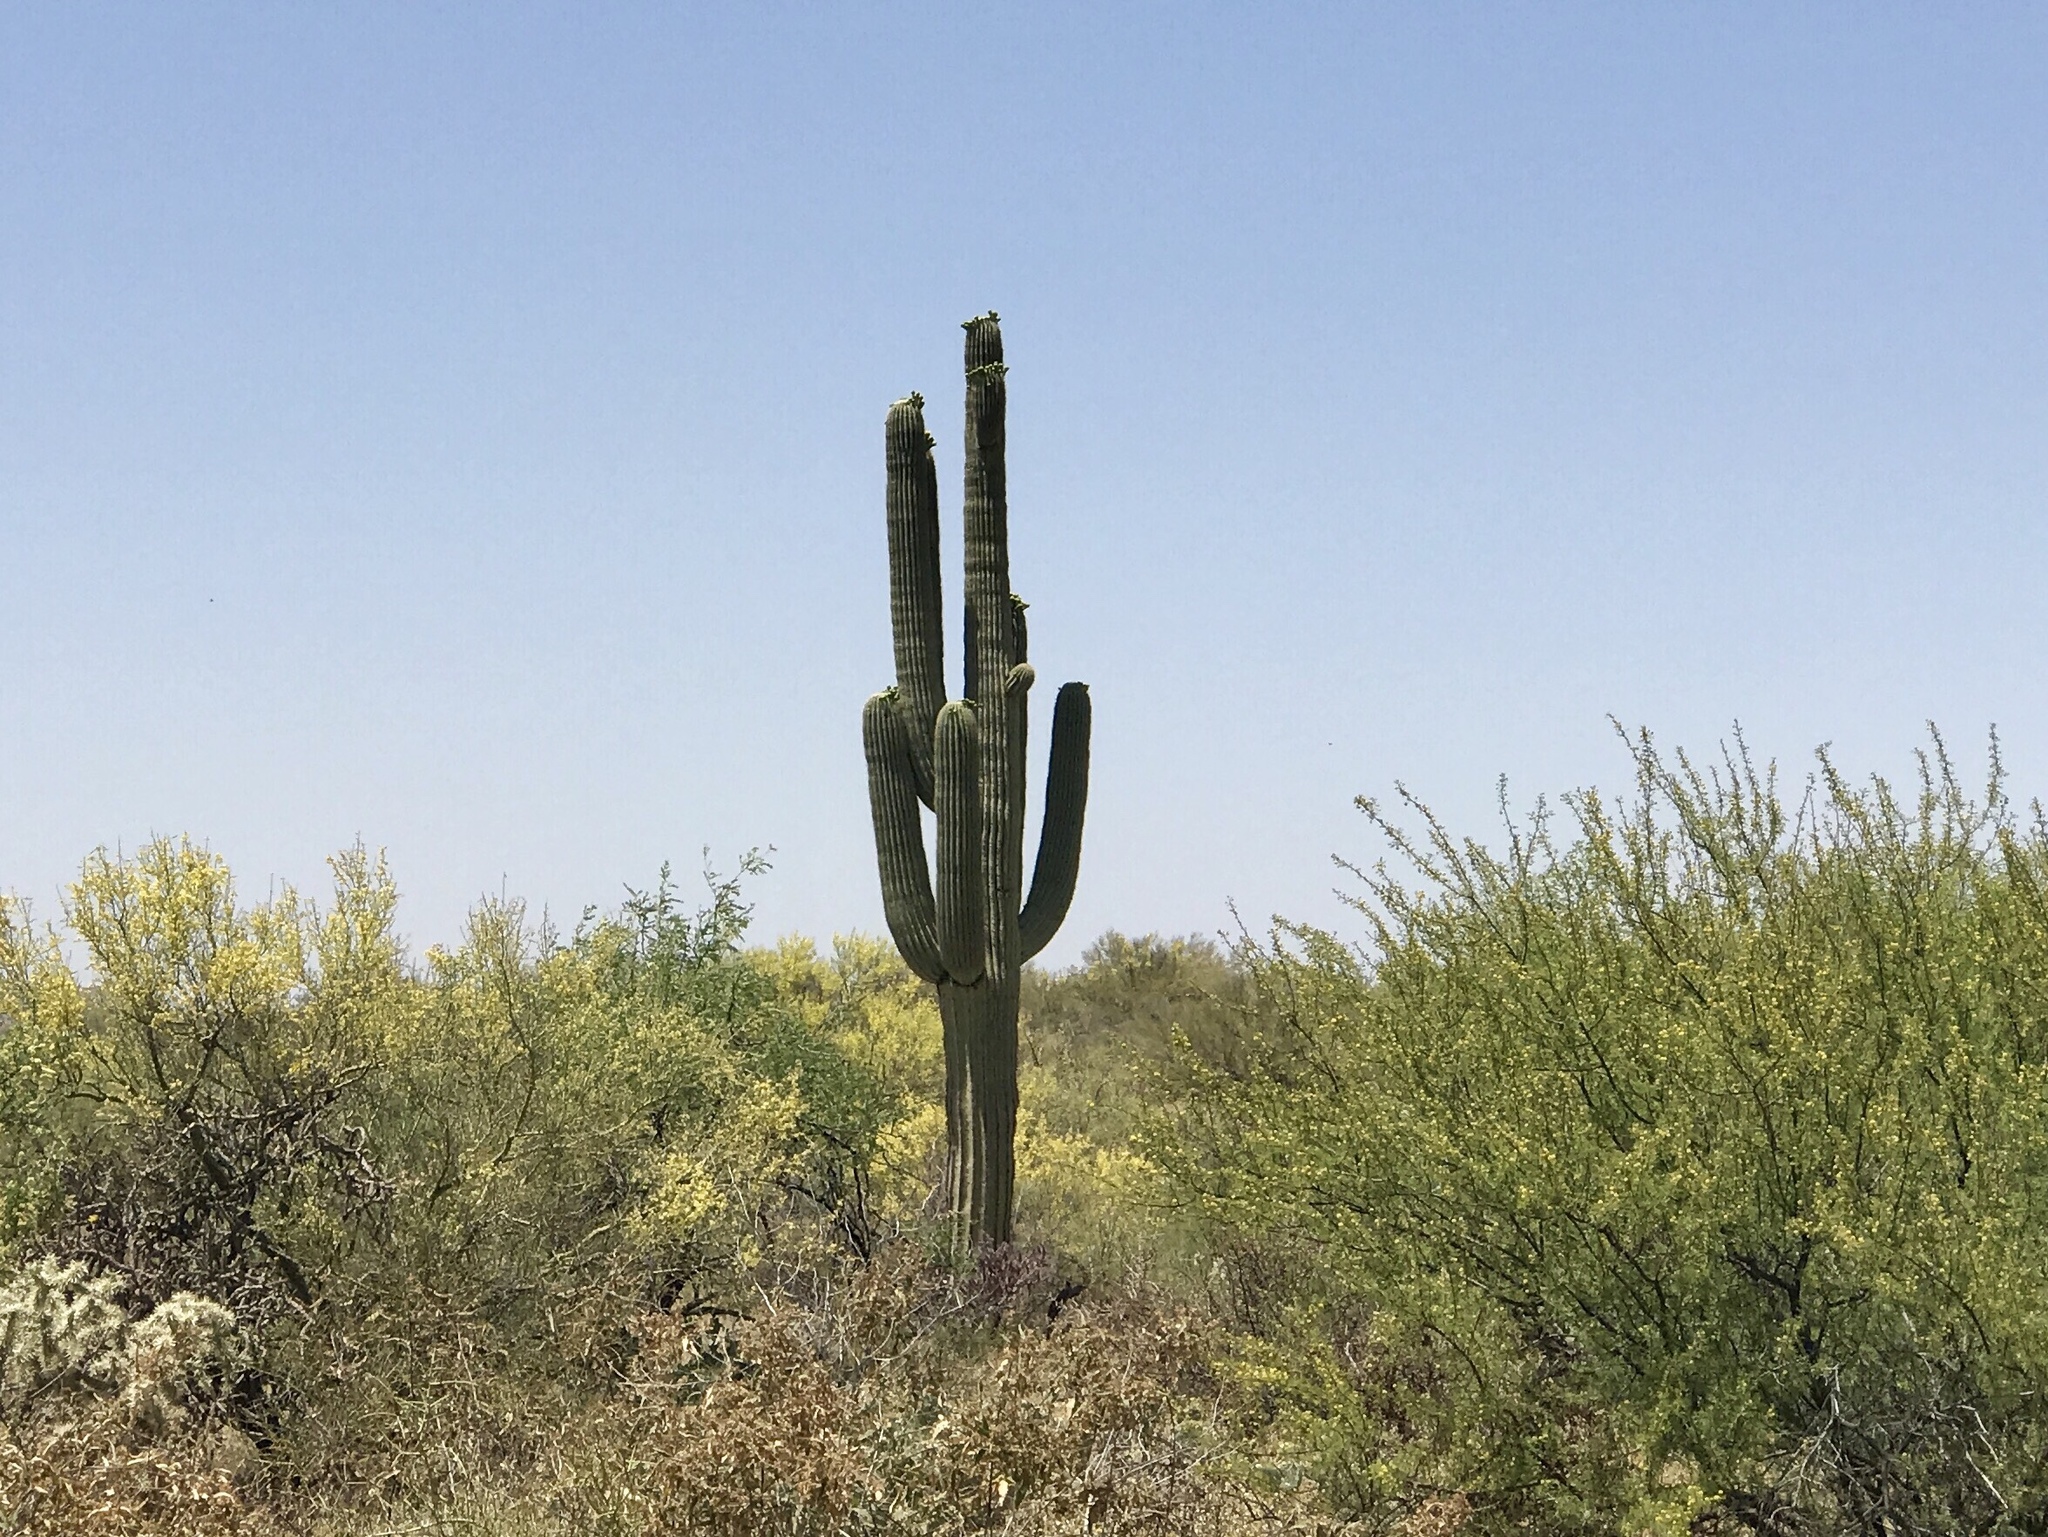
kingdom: Plantae
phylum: Tracheophyta
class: Magnoliopsida
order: Caryophyllales
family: Cactaceae
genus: Carnegiea
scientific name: Carnegiea gigantea
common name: Saguaro
